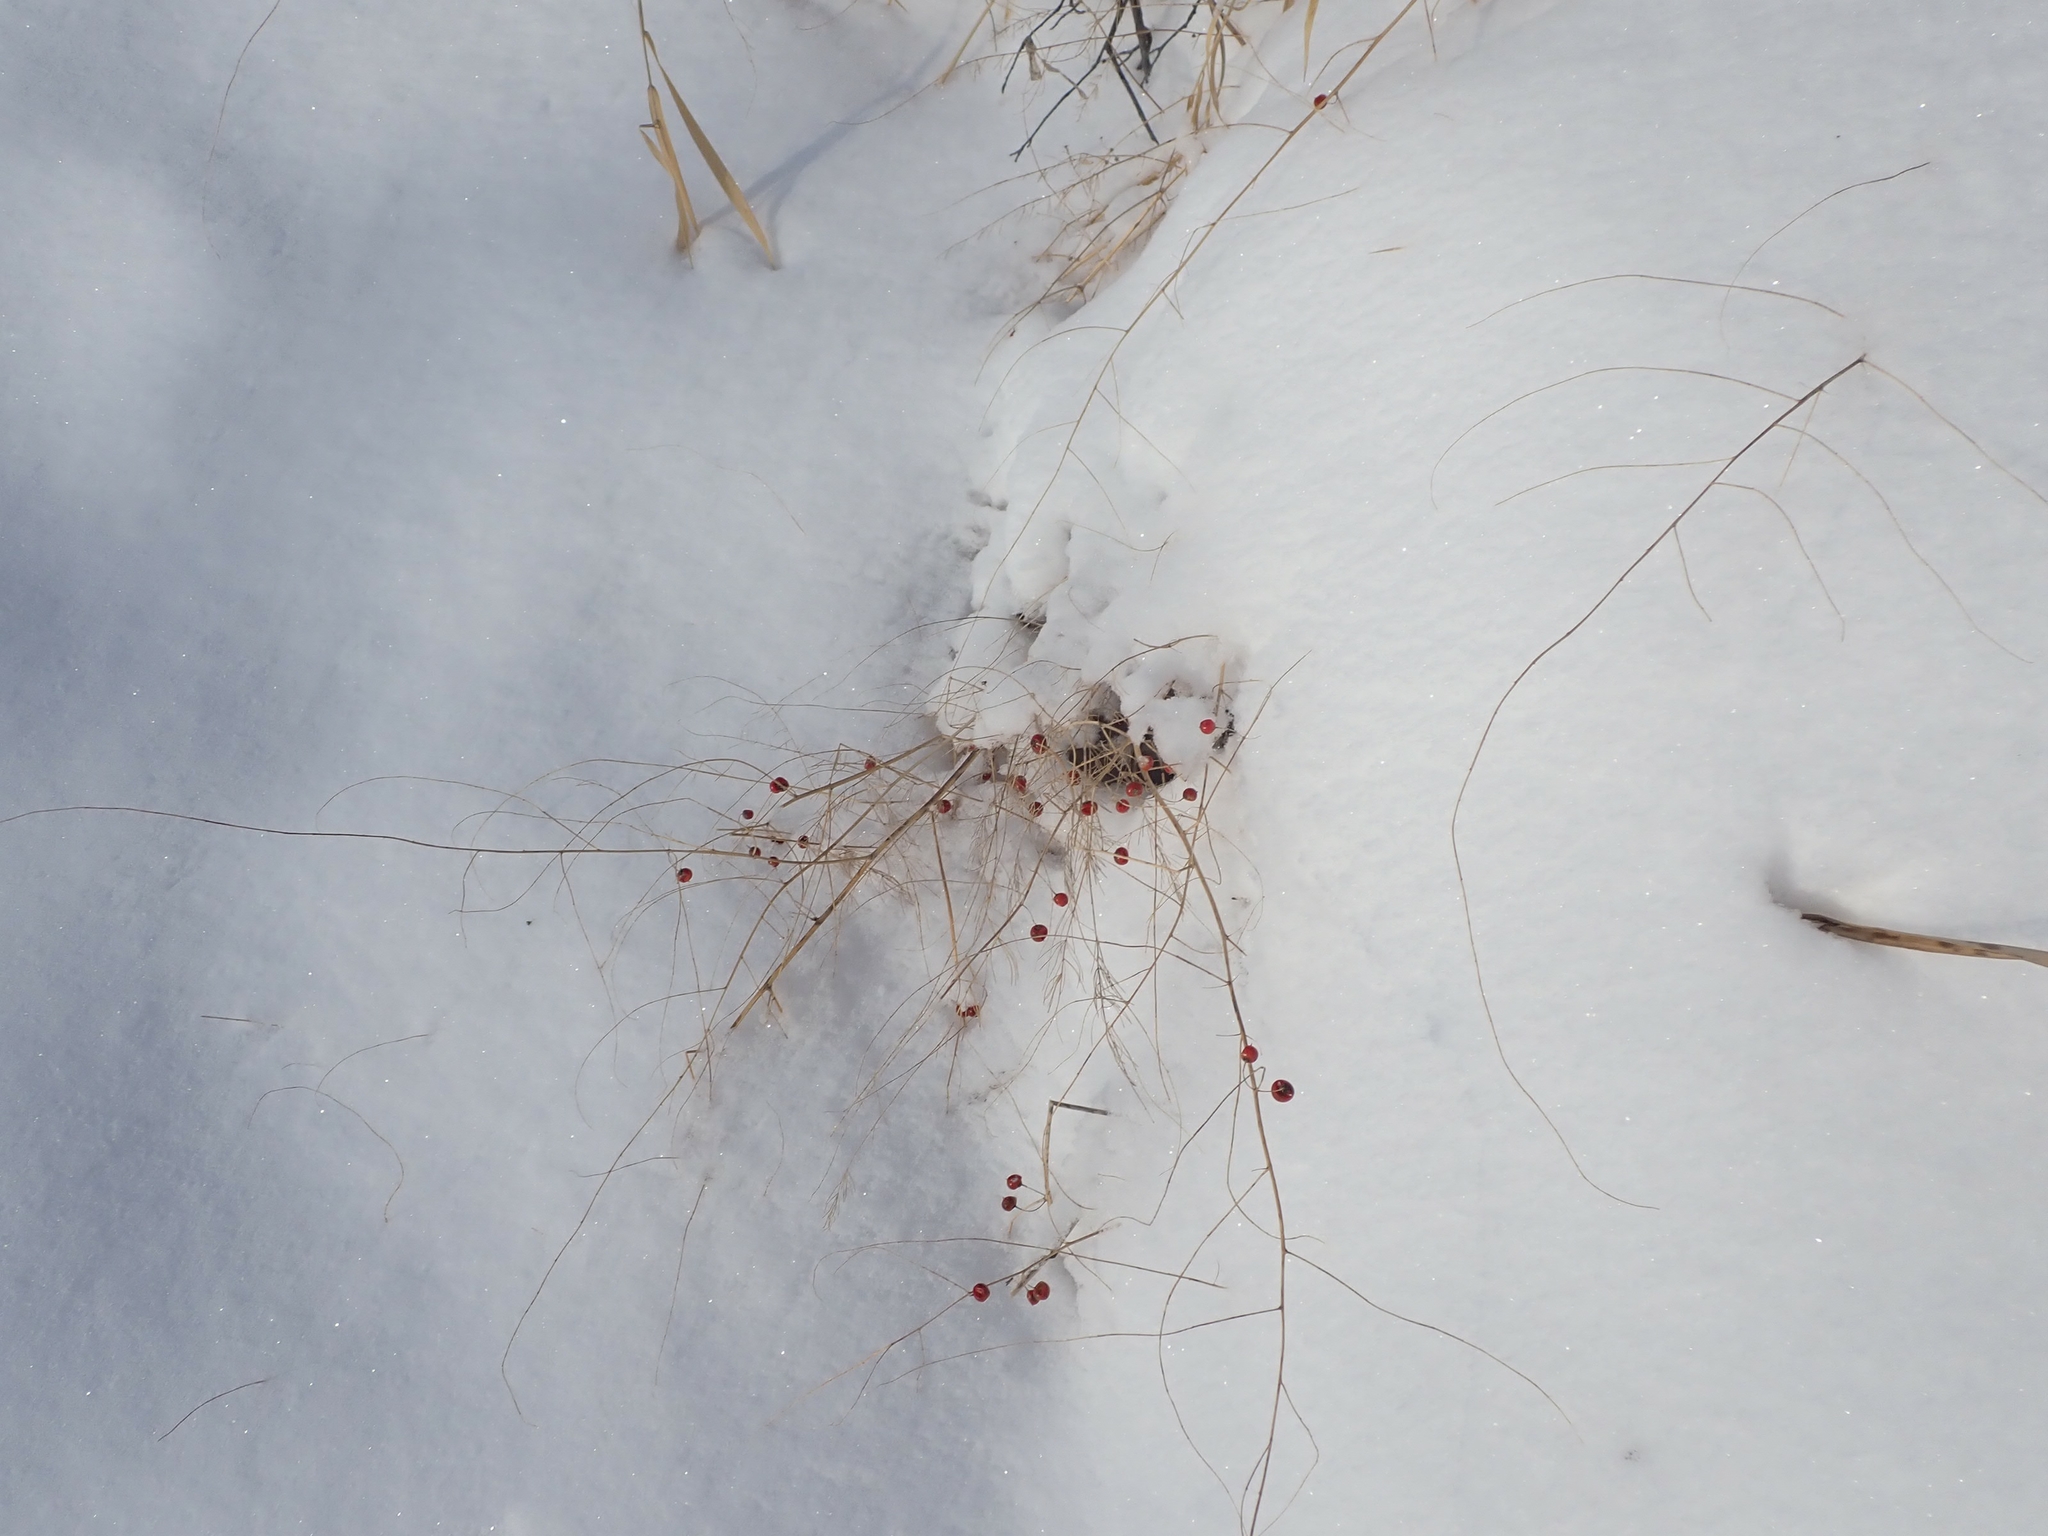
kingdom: Plantae
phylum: Tracheophyta
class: Liliopsida
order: Asparagales
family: Asparagaceae
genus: Asparagus
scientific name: Asparagus officinalis
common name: Garden asparagus
